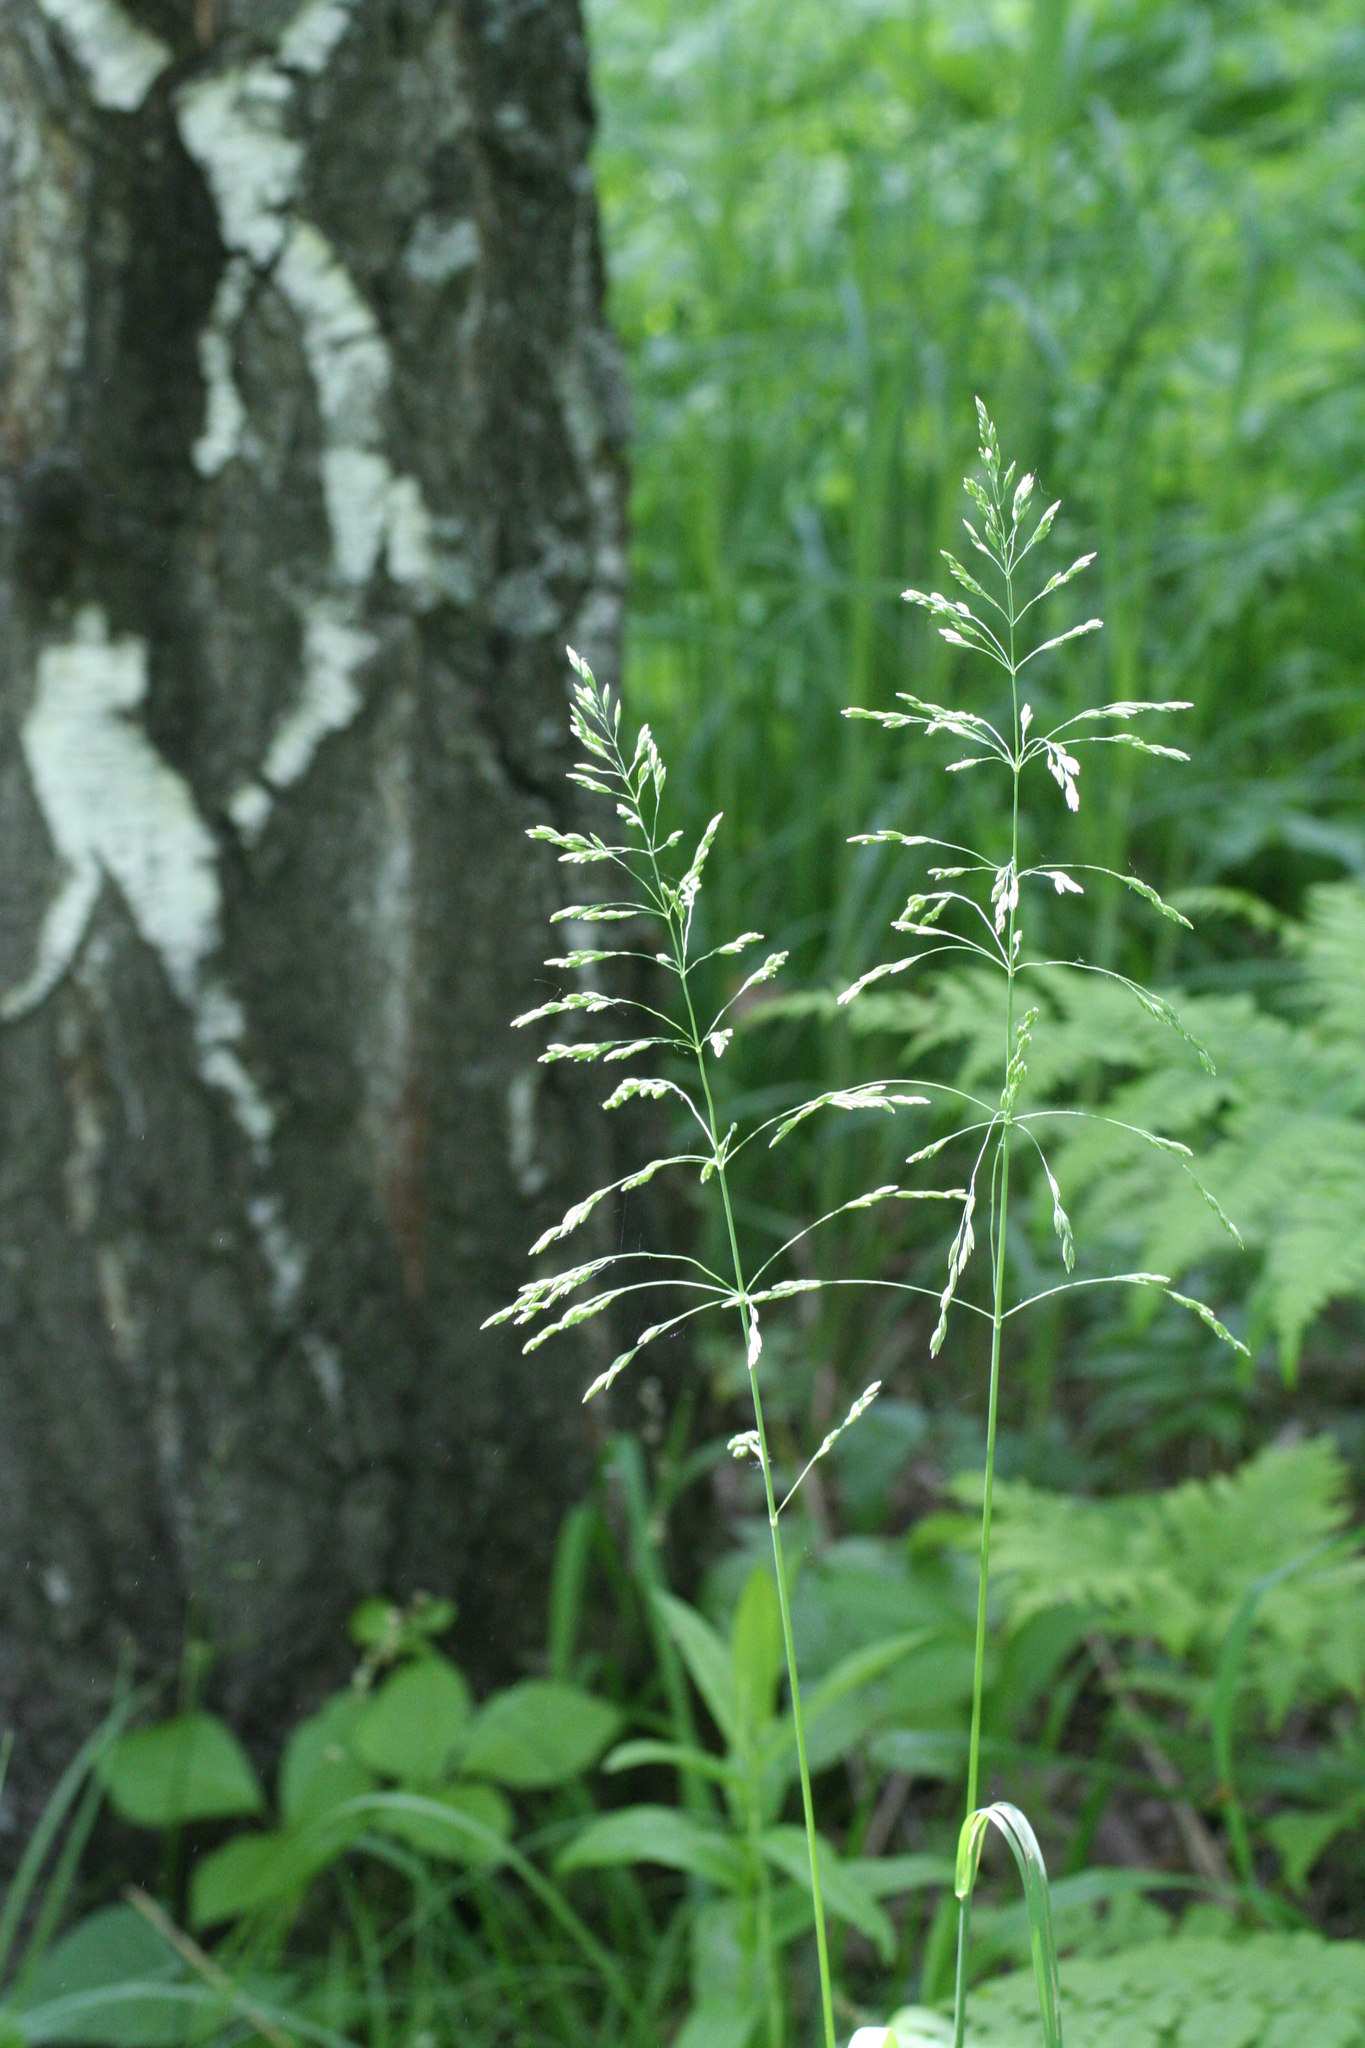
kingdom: Plantae
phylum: Tracheophyta
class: Liliopsida
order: Poales
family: Poaceae
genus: Milium
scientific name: Milium effusum
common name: Wood millet
